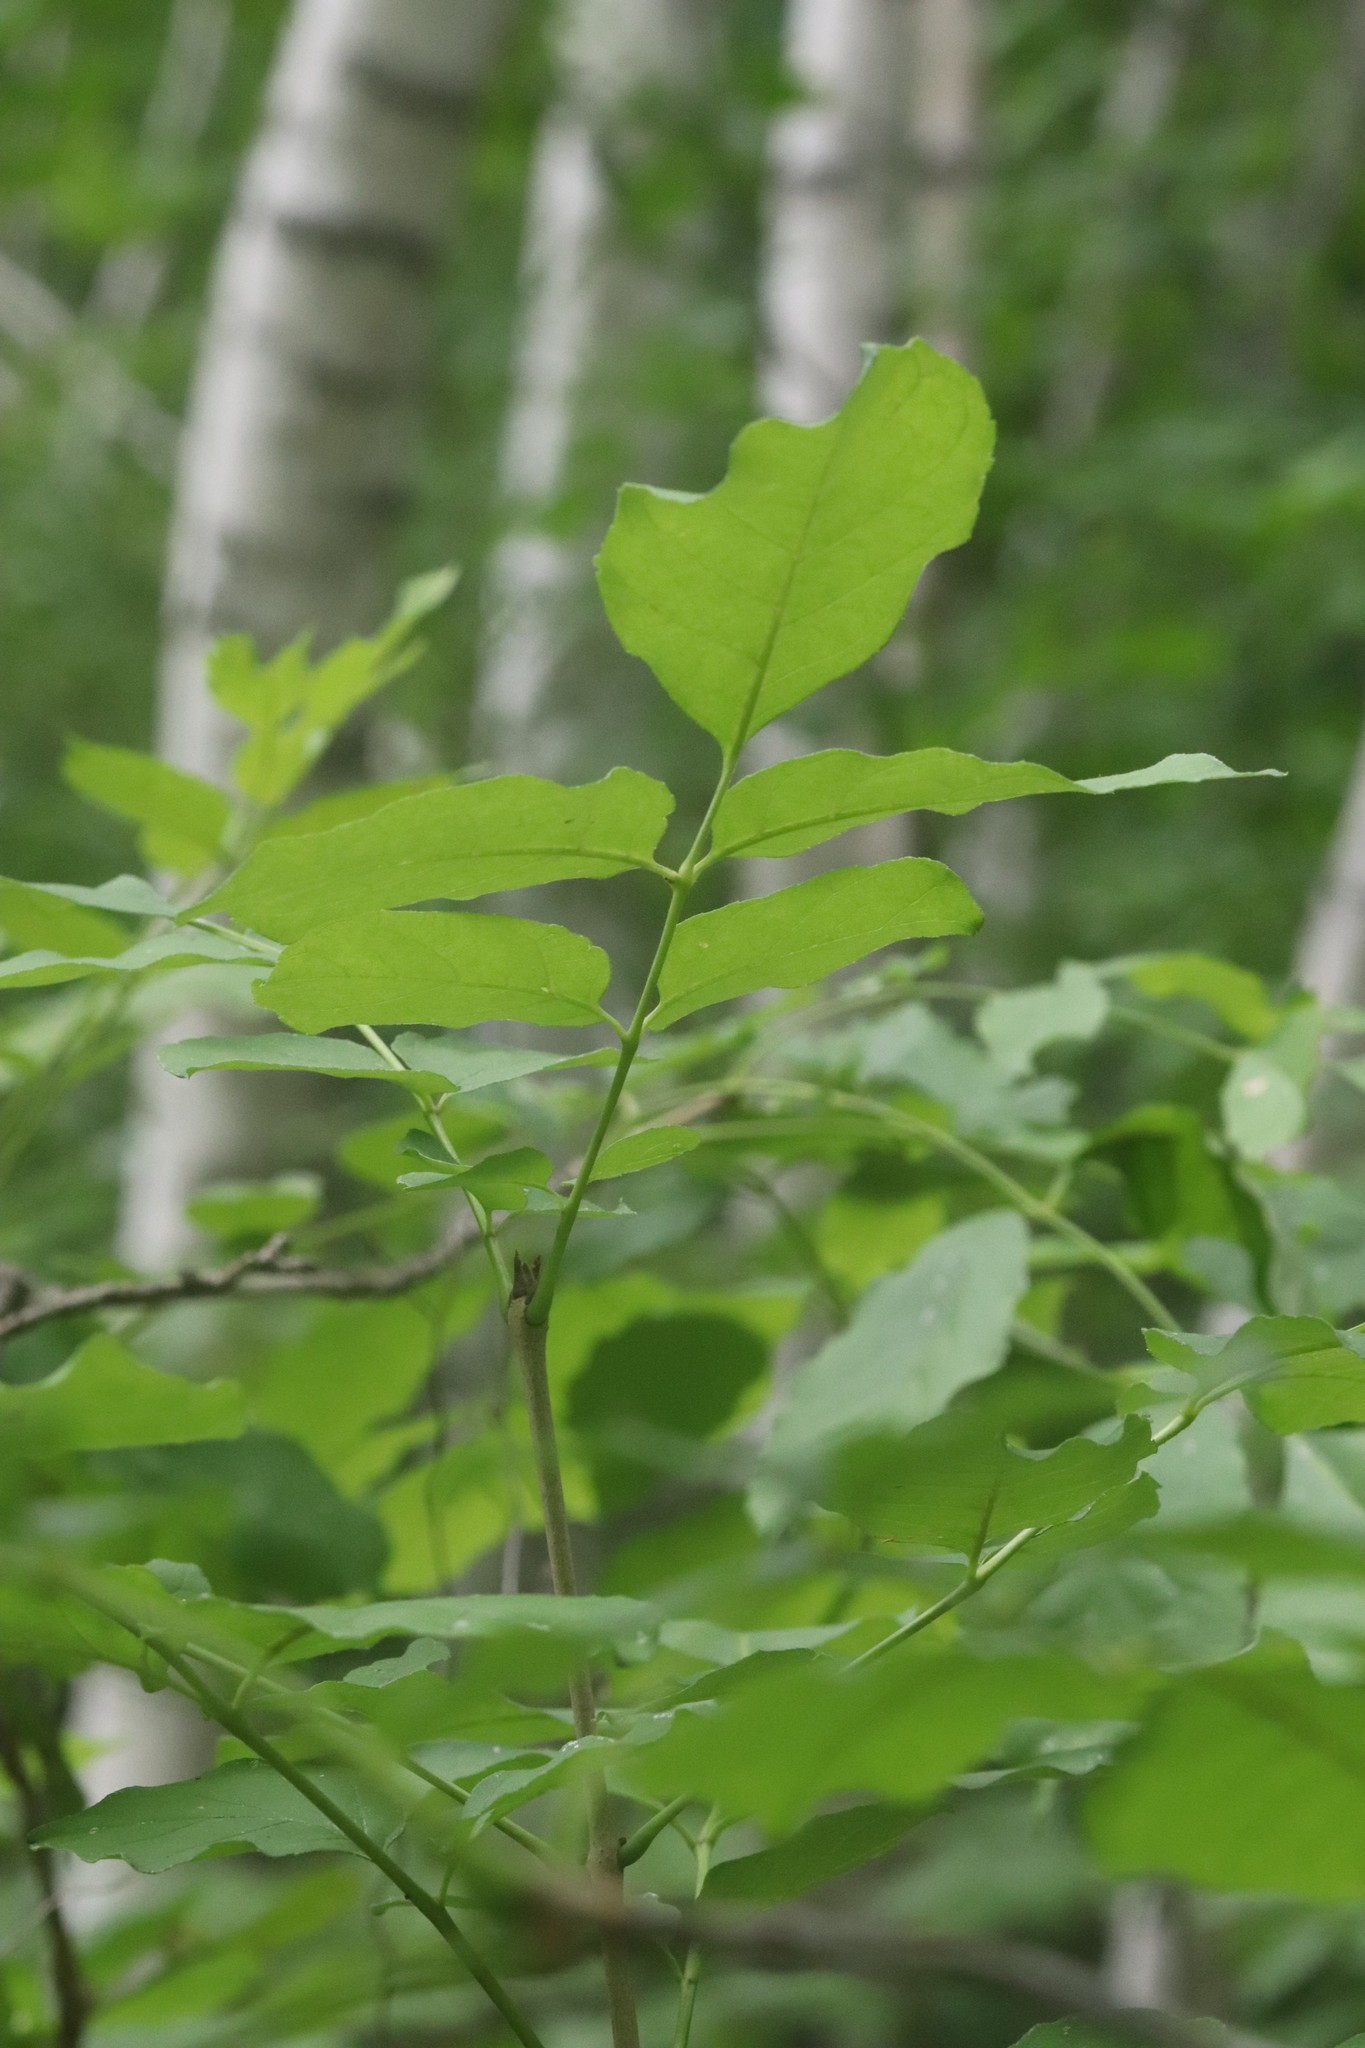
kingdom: Plantae
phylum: Tracheophyta
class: Magnoliopsida
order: Lamiales
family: Oleaceae
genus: Fraxinus
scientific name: Fraxinus chinensis
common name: Chinese ash
